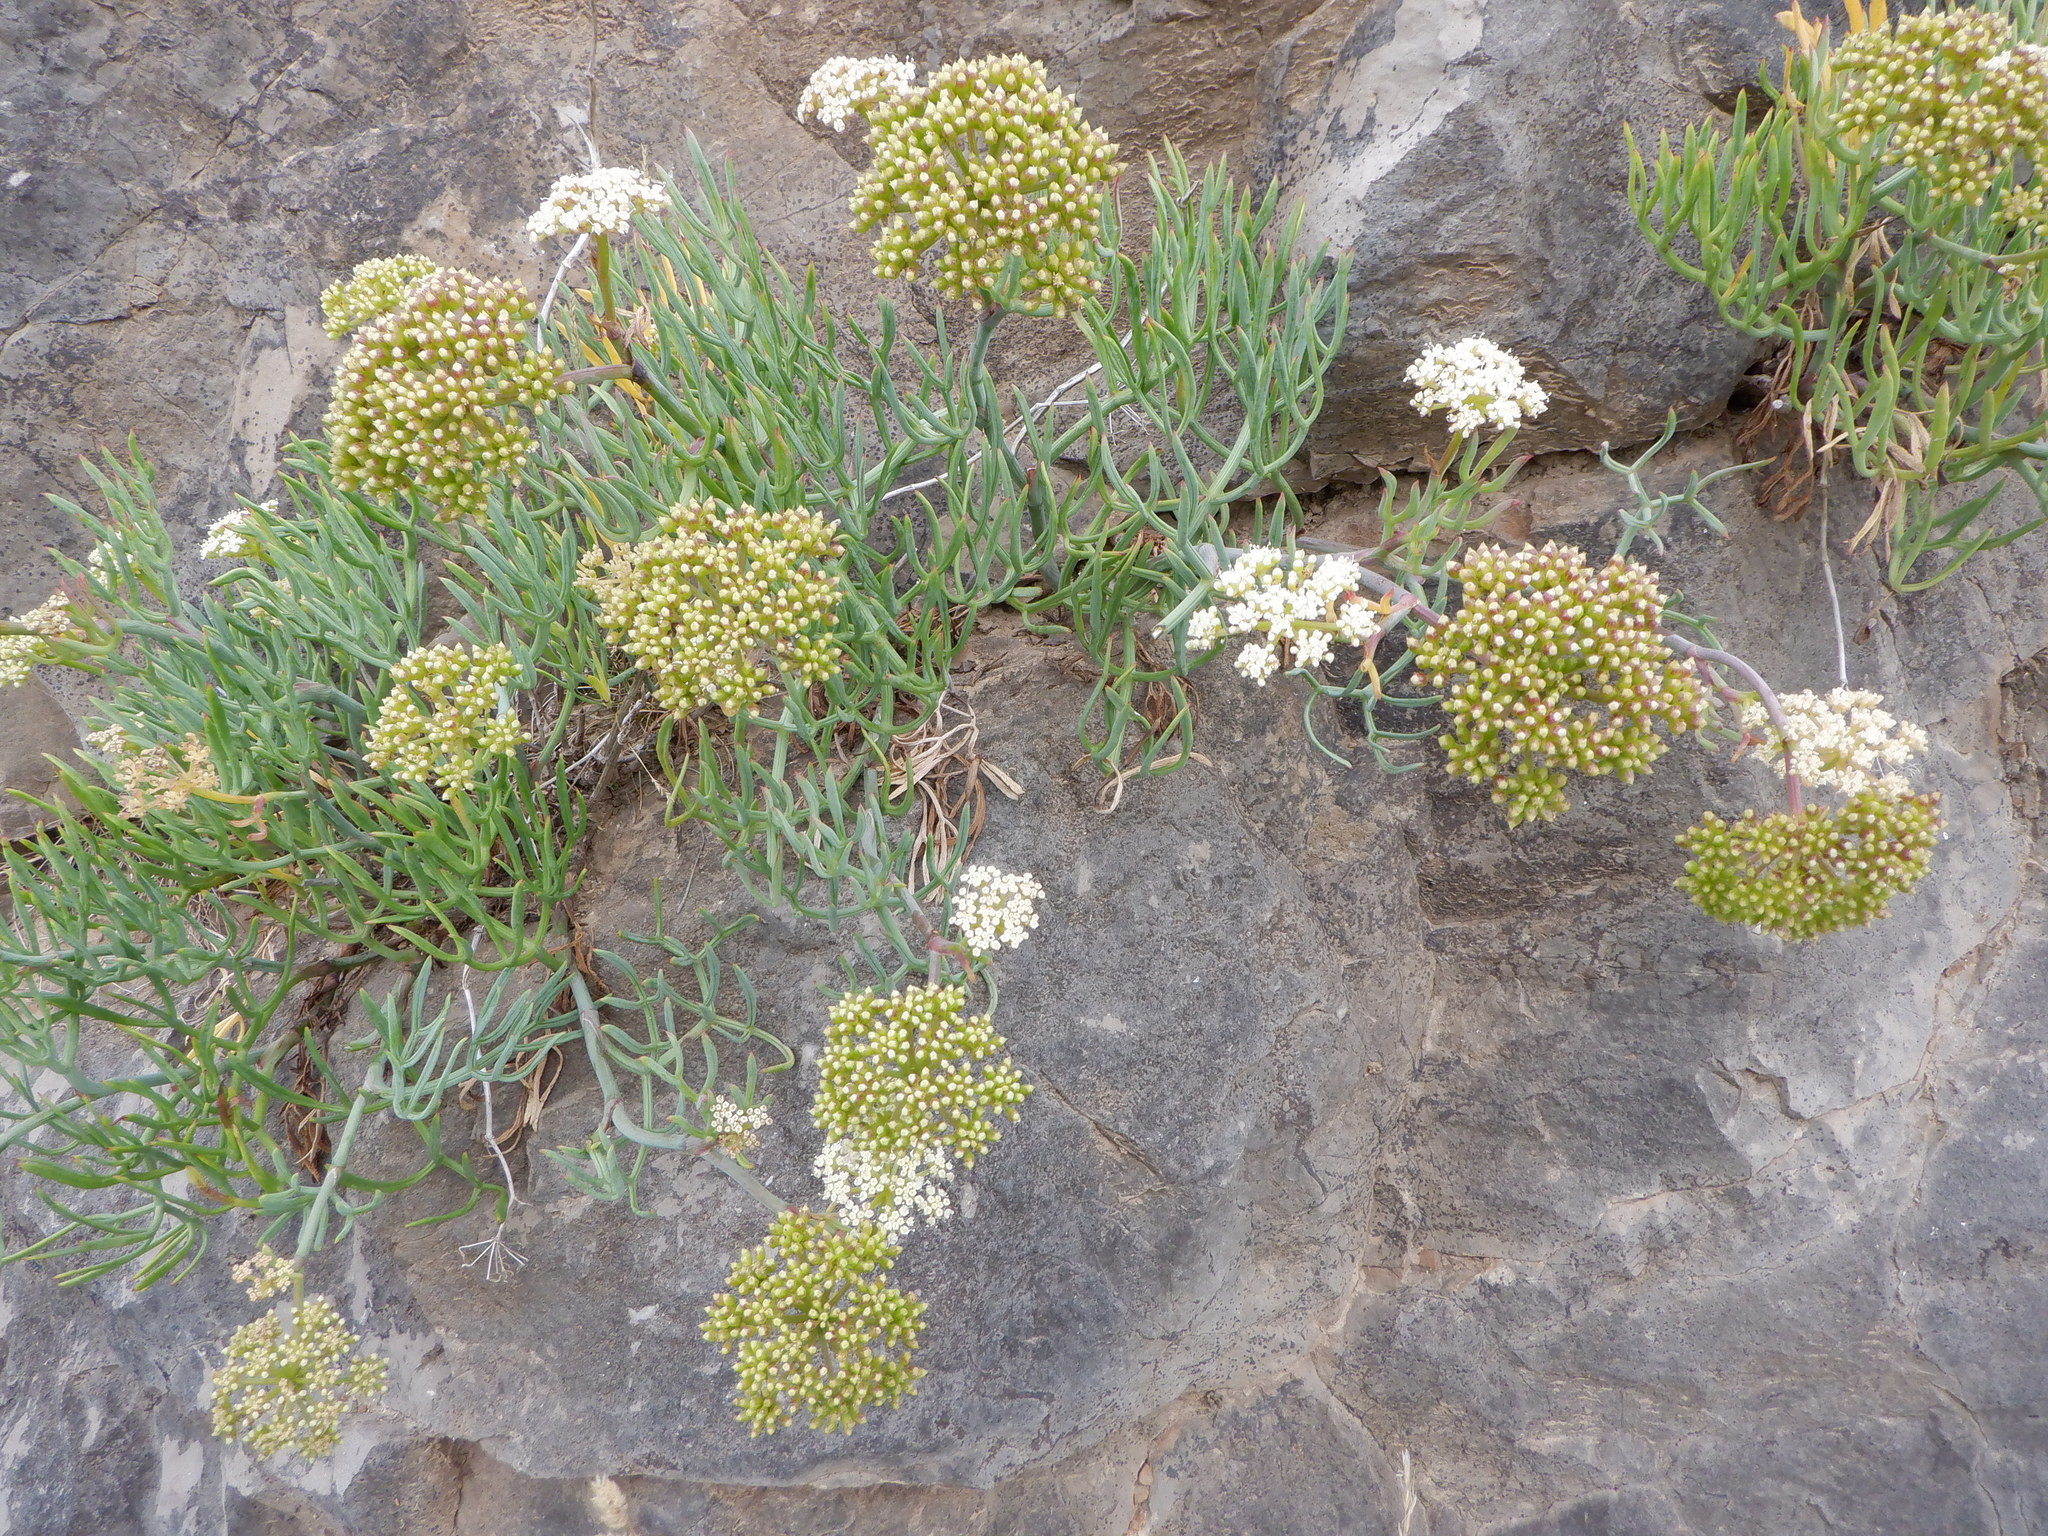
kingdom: Plantae
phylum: Tracheophyta
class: Magnoliopsida
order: Apiales
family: Apiaceae
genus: Crithmum
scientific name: Crithmum maritimum
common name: Rock samphire
